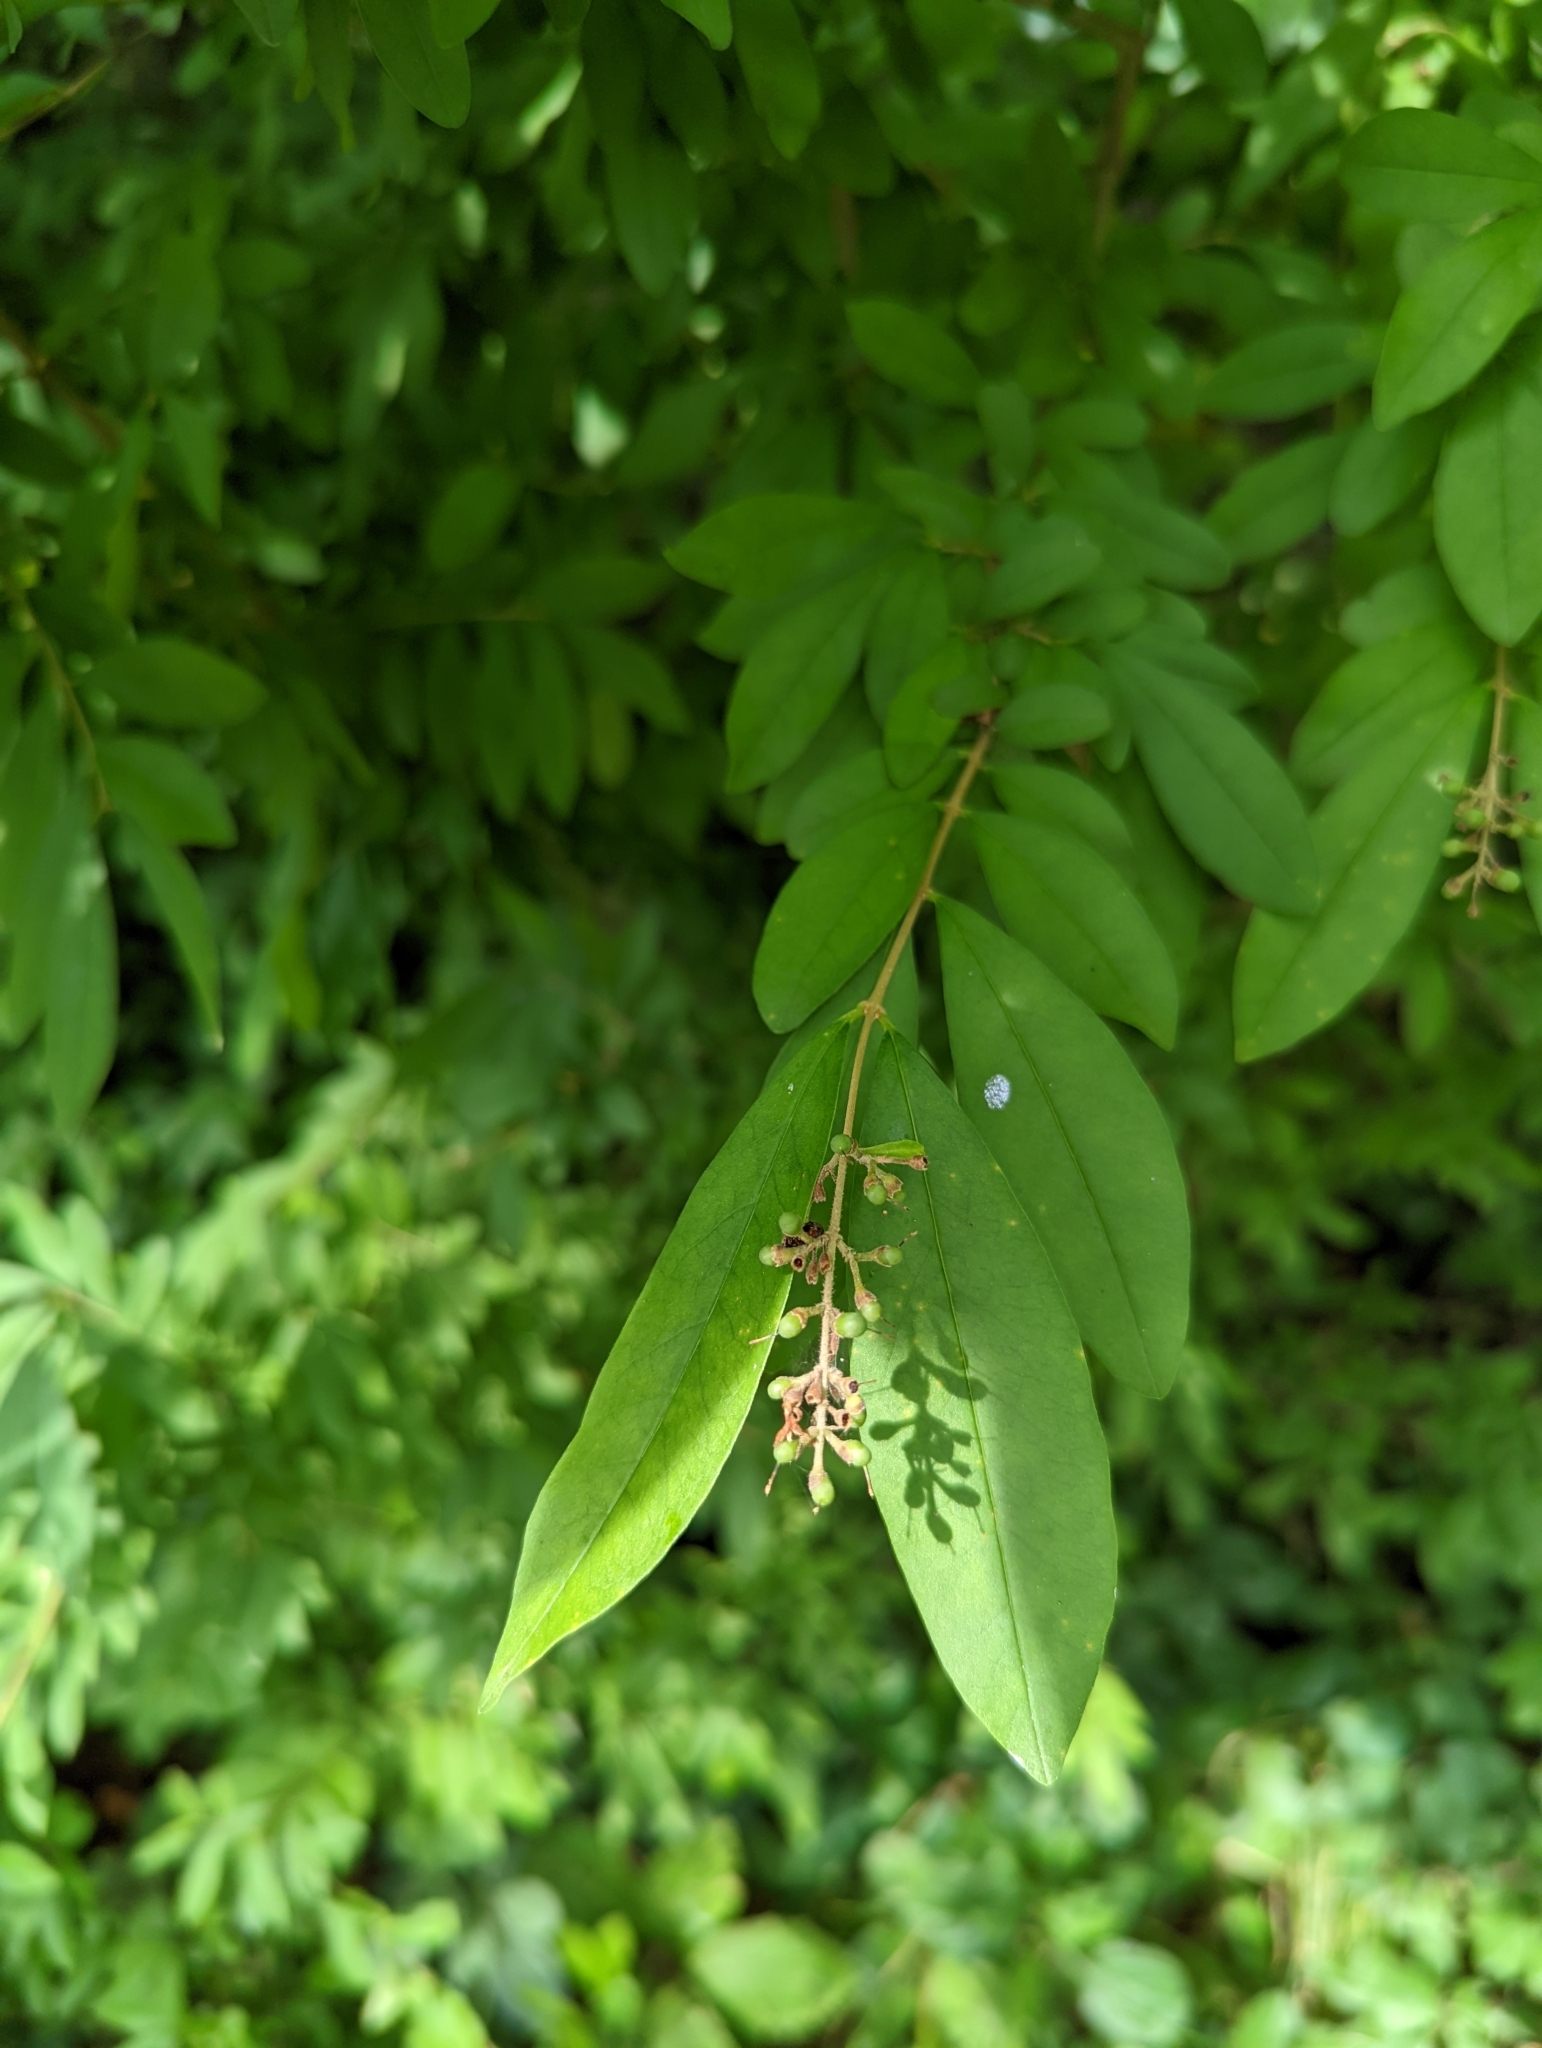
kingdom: Plantae
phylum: Tracheophyta
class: Magnoliopsida
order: Lamiales
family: Oleaceae
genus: Ligustrum
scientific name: Ligustrum obtusifolium
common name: Border privet
